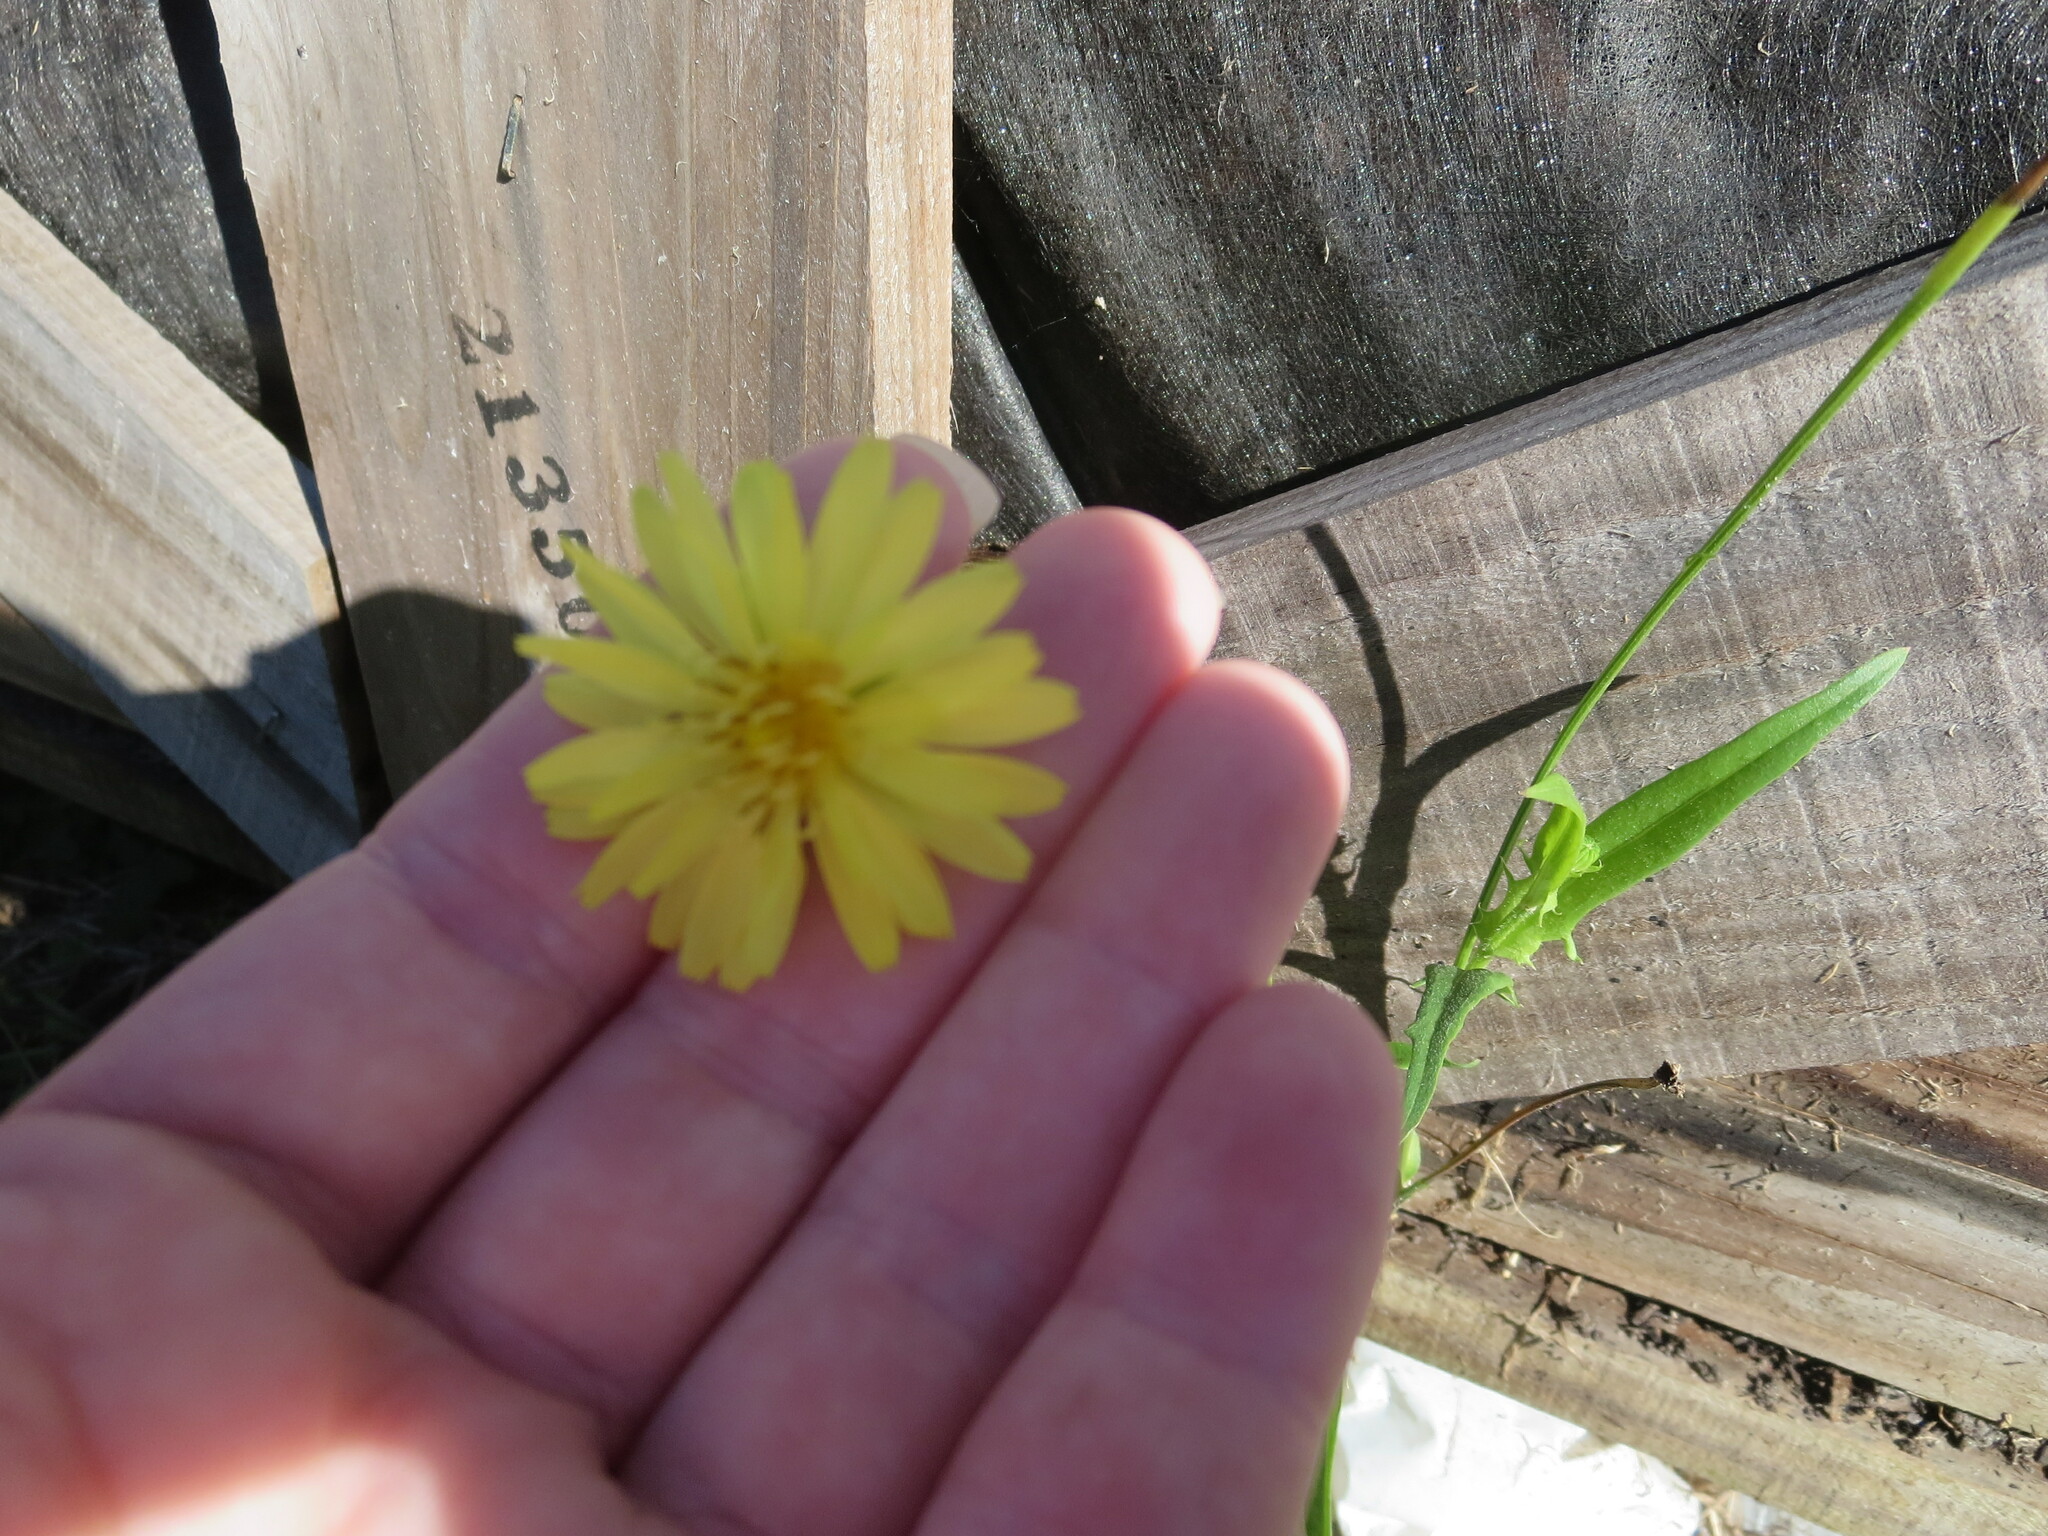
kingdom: Plantae
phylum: Tracheophyta
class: Magnoliopsida
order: Asterales
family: Asteraceae
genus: Pyrrhopappus
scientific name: Pyrrhopappus carolinianus
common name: Carolina desert-chicory
